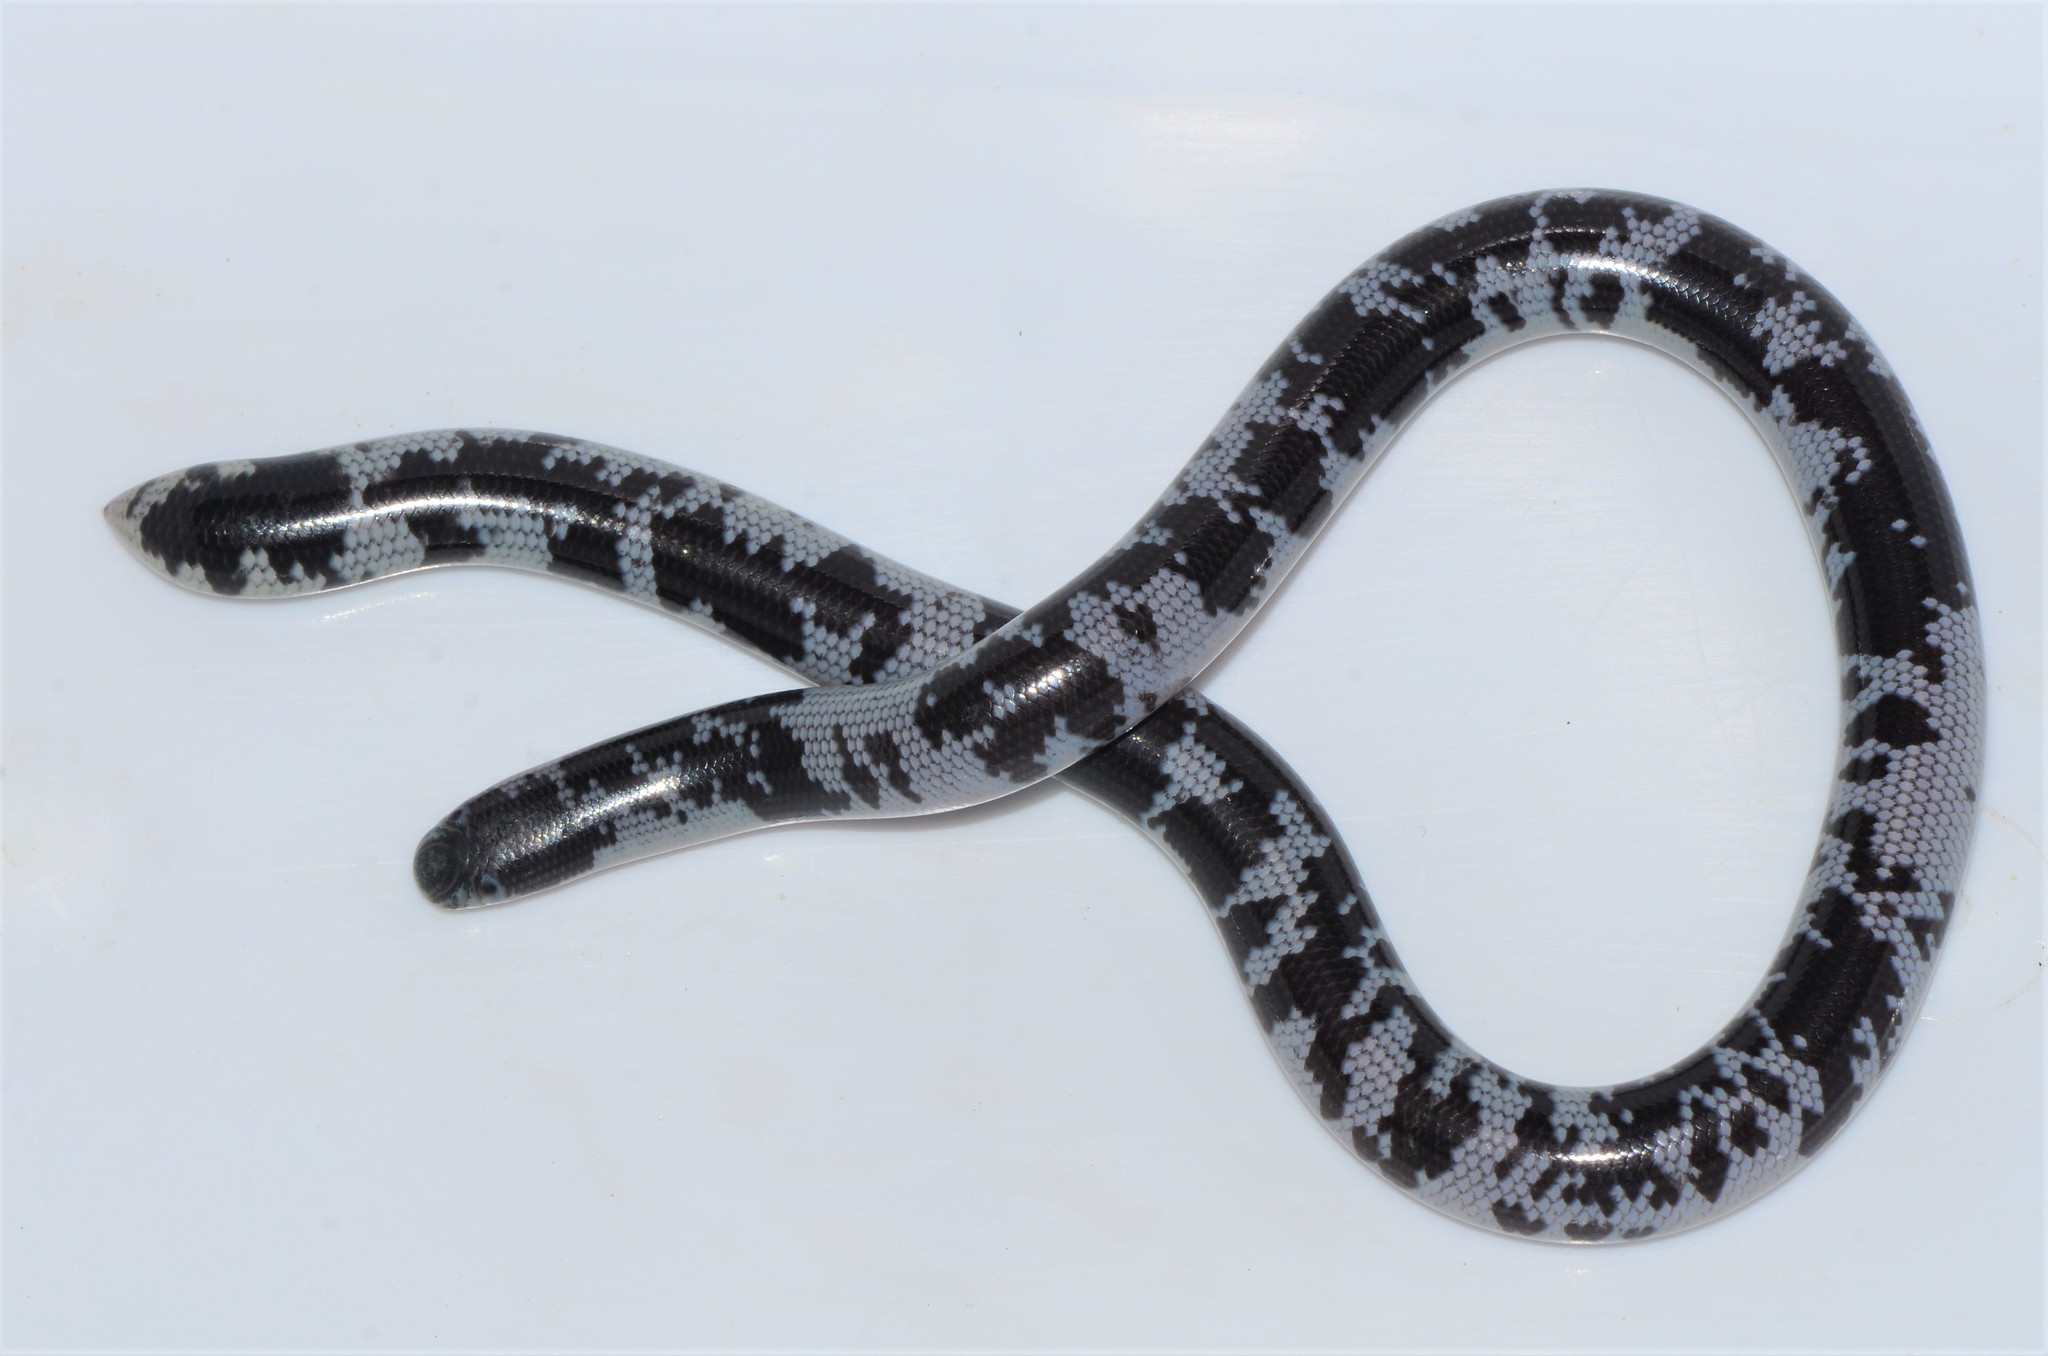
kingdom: Animalia
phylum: Chordata
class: Squamata
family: Typhlopidae
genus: Afrotyphlops
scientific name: Afrotyphlops mucruso
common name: Zambezi blind snake
